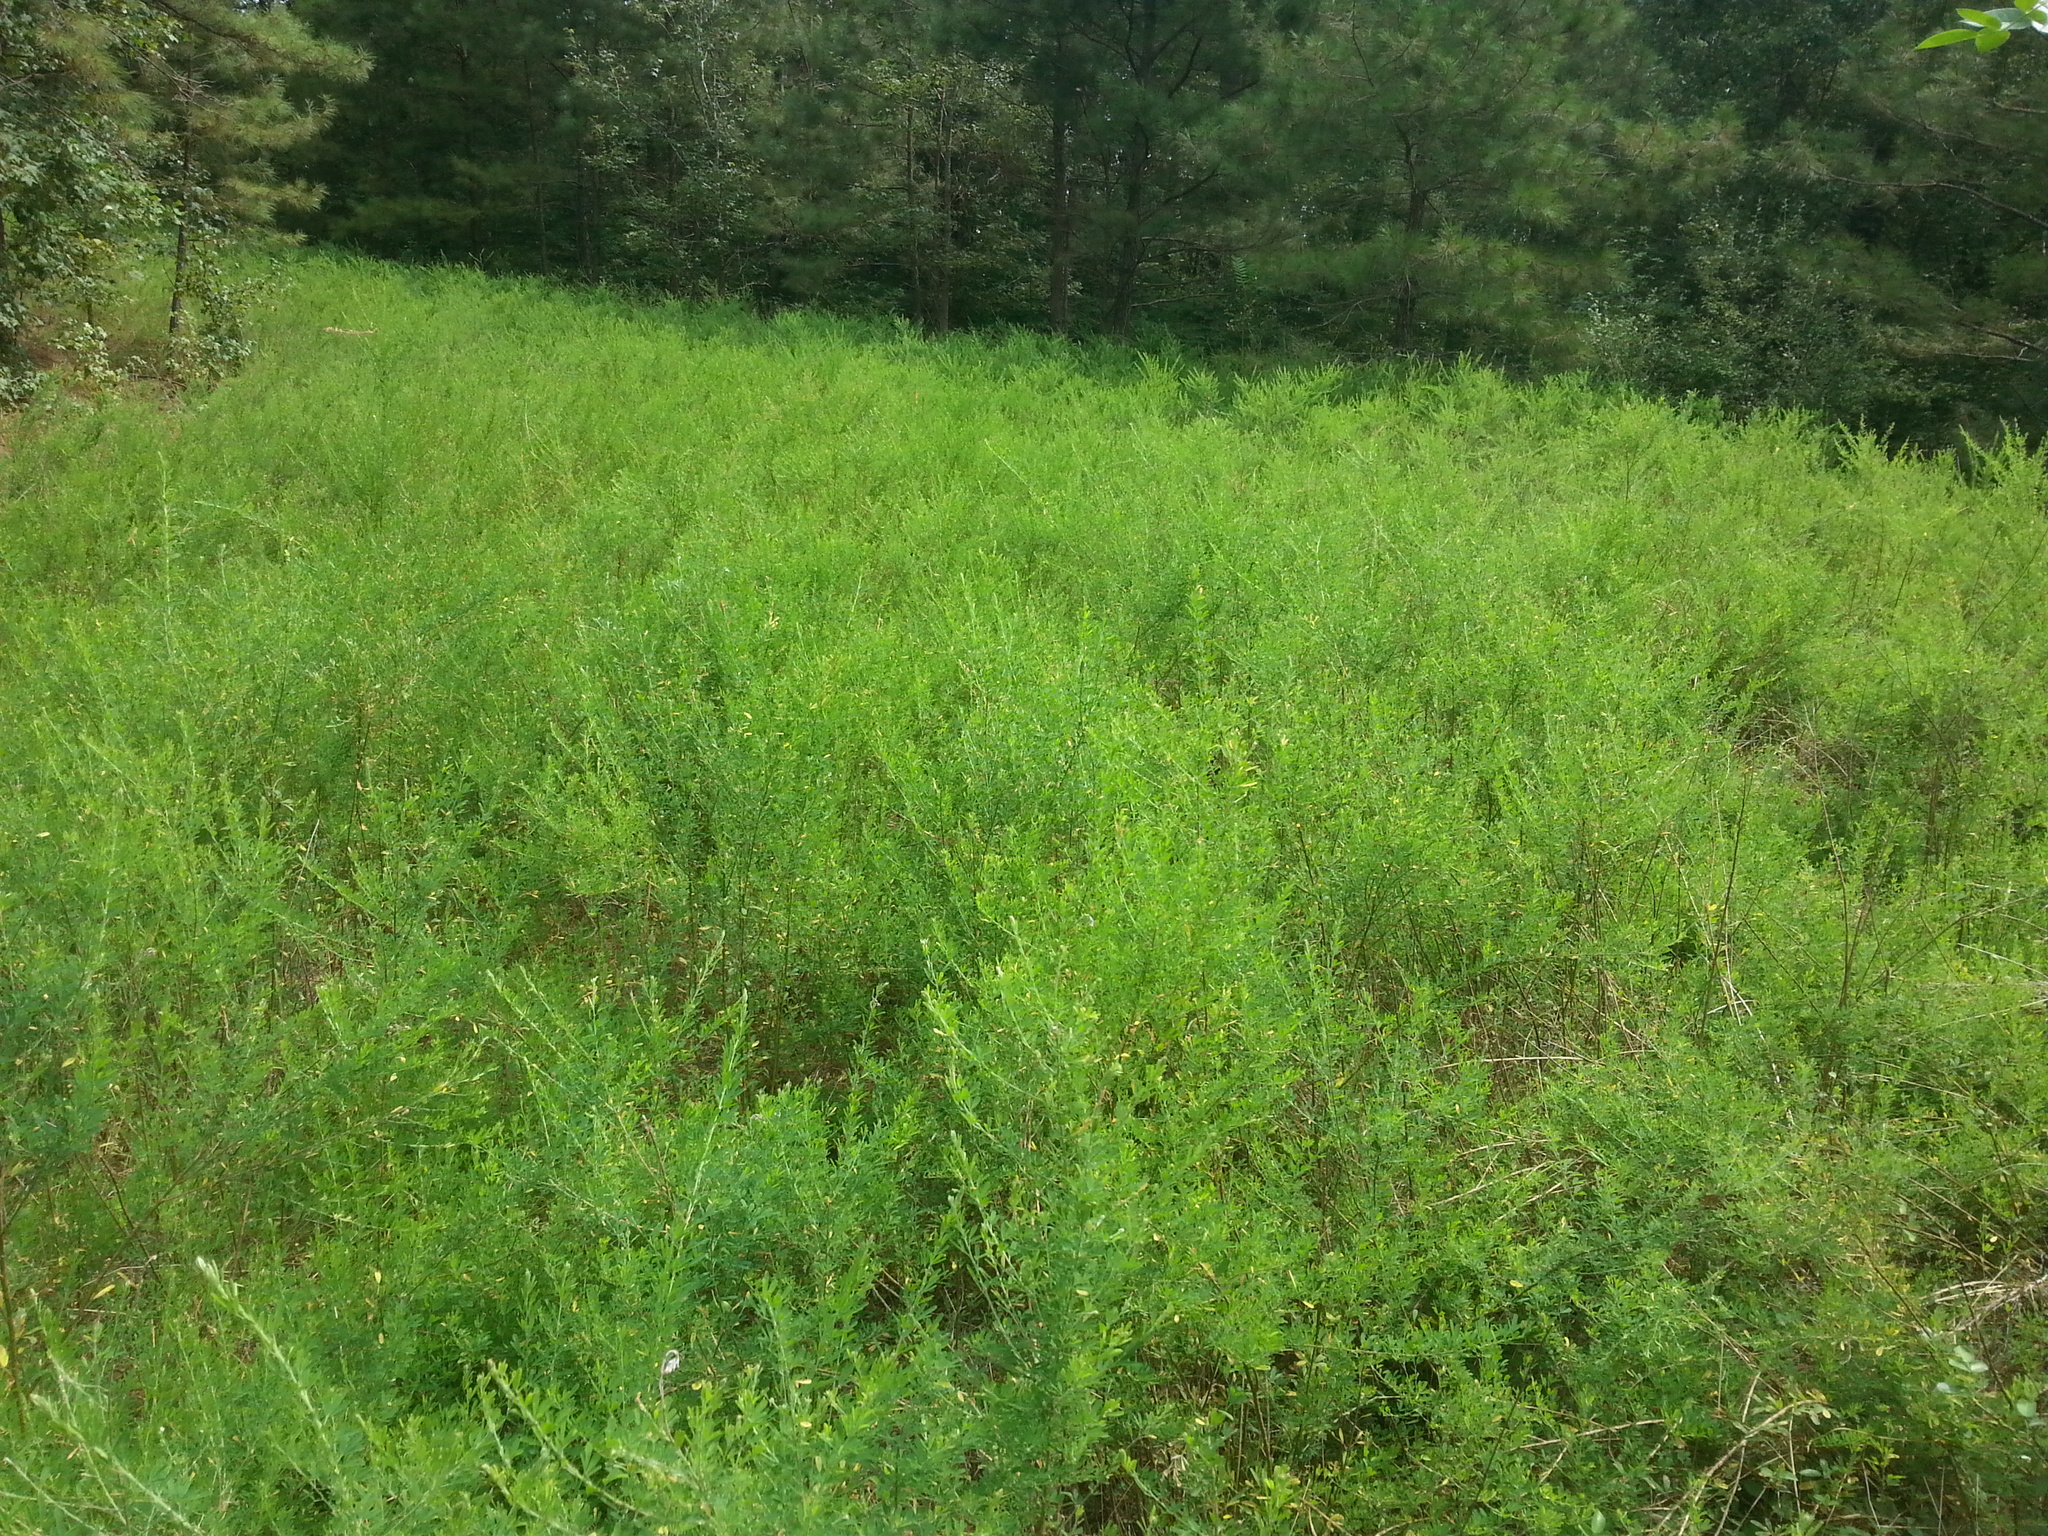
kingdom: Plantae
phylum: Tracheophyta
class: Magnoliopsida
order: Fabales
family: Fabaceae
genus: Lespedeza
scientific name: Lespedeza cuneata
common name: Chinese bush-clover
